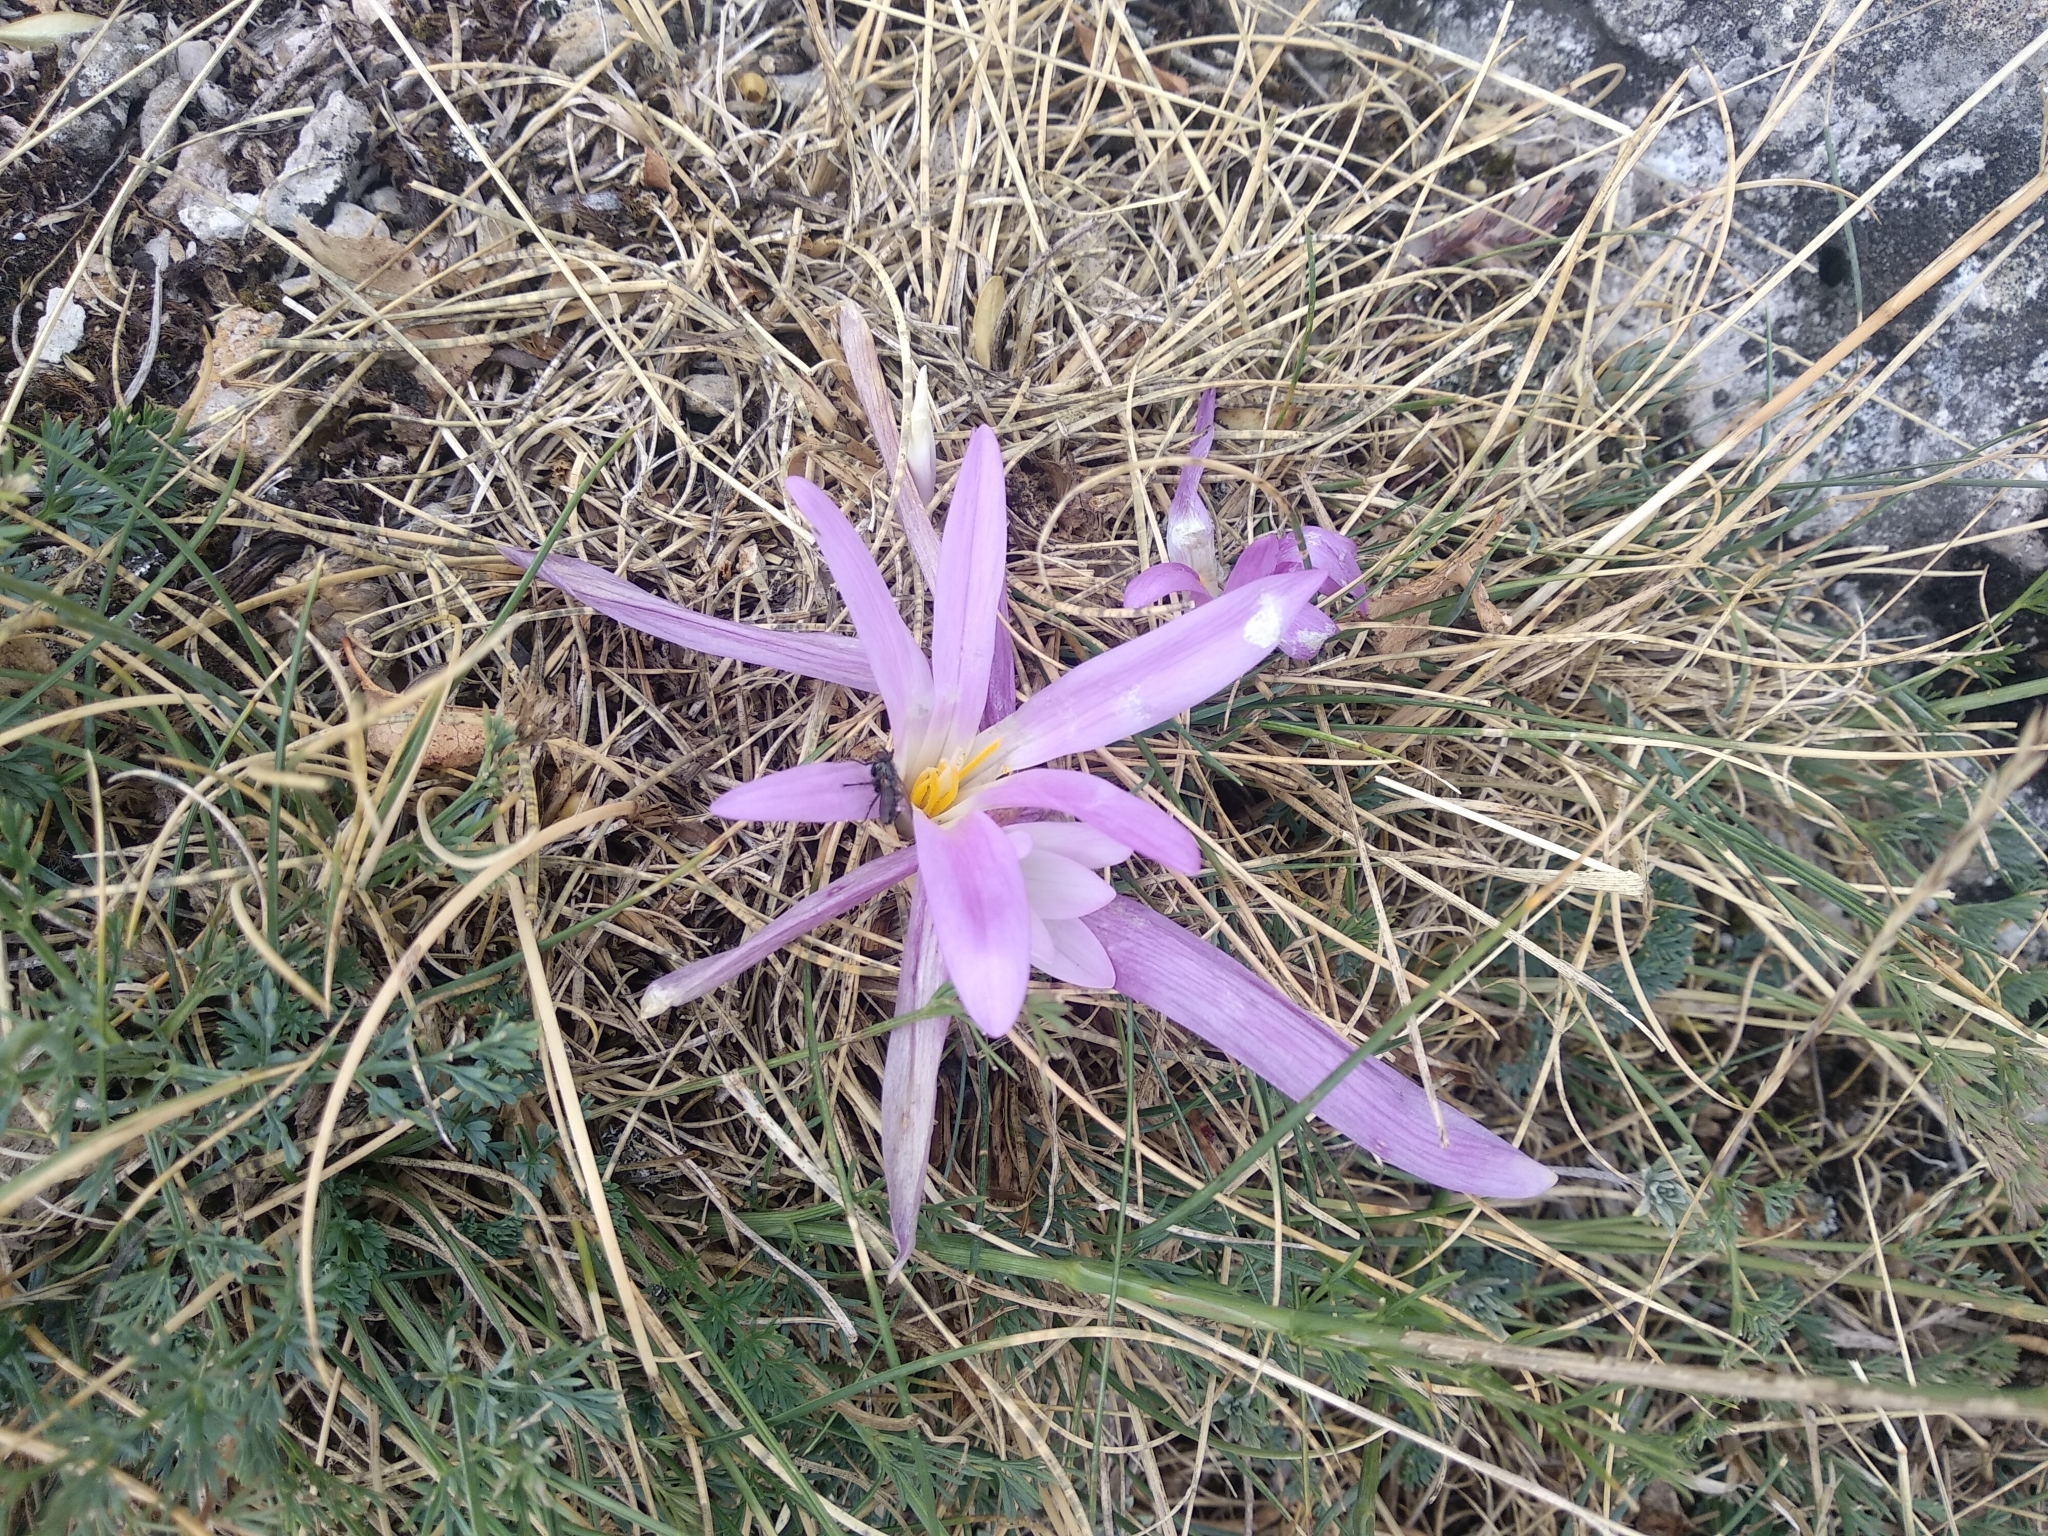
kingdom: Plantae
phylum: Tracheophyta
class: Liliopsida
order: Liliales
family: Colchicaceae
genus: Colchicum
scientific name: Colchicum montanum
